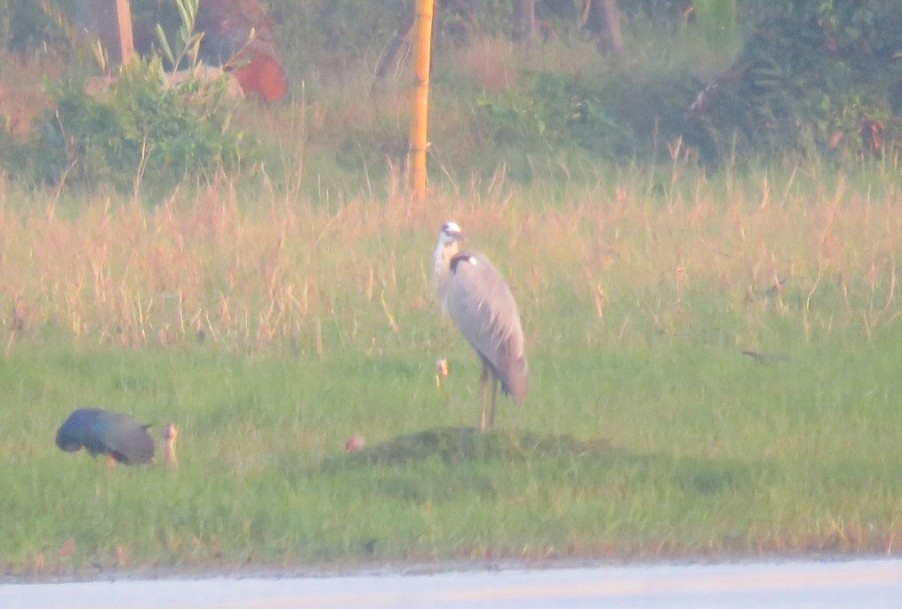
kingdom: Animalia
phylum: Chordata
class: Aves
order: Pelecaniformes
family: Ardeidae
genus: Ardea
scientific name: Ardea cinerea
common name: Grey heron
